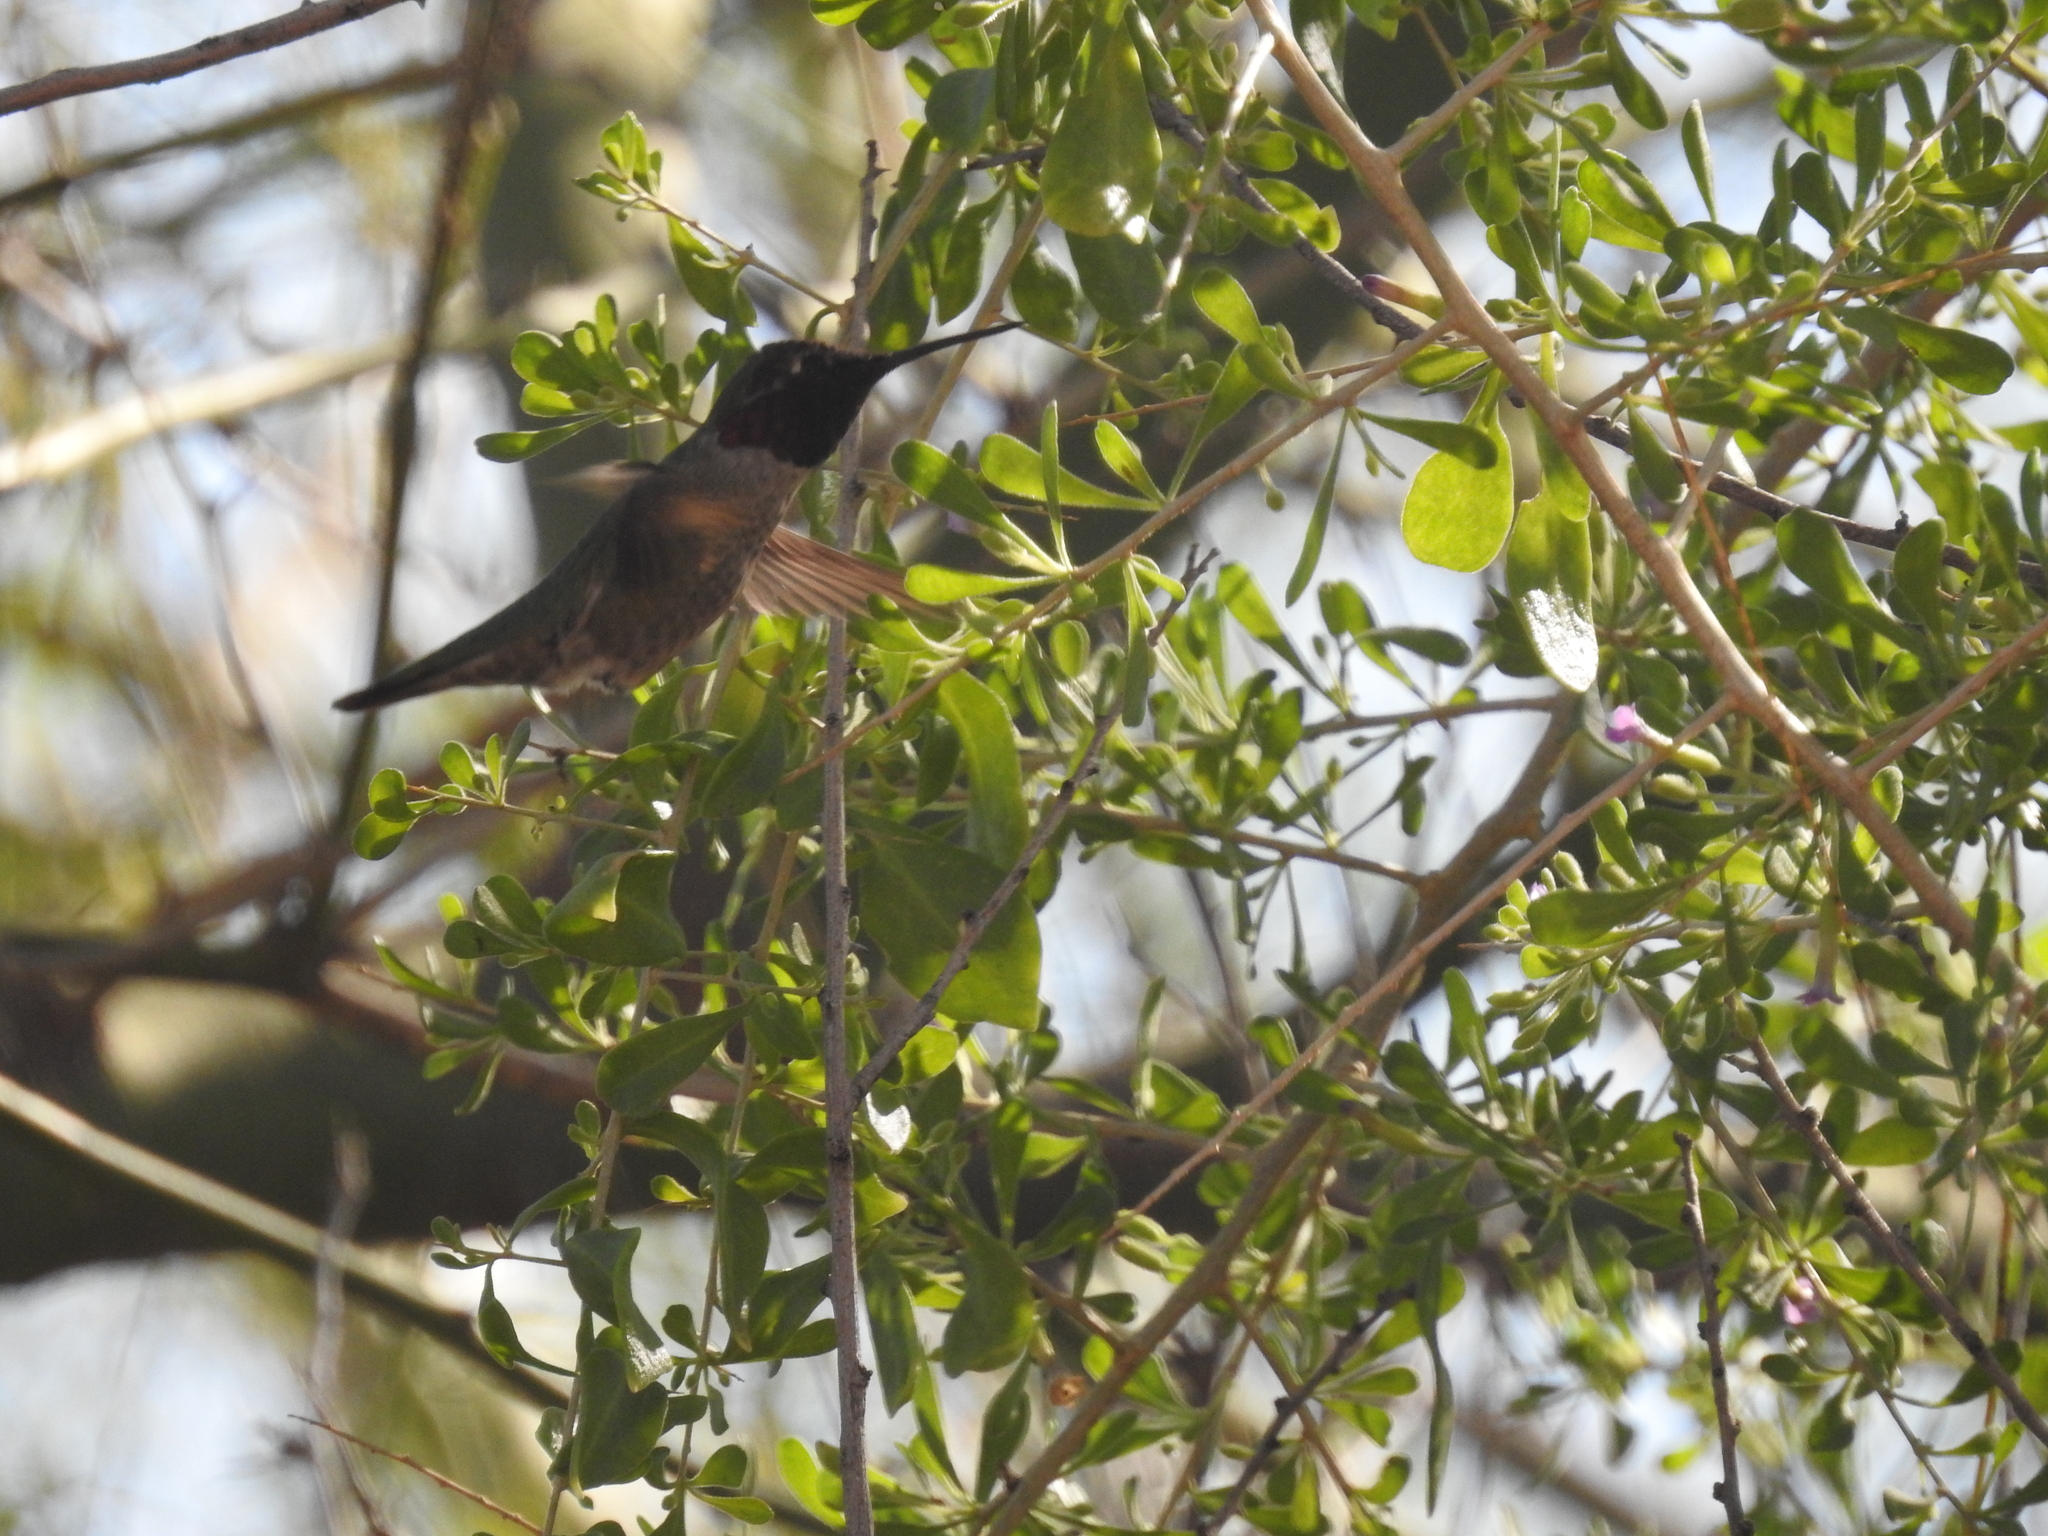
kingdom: Animalia
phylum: Chordata
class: Aves
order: Apodiformes
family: Trochilidae
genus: Calypte
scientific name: Calypte anna
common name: Anna's hummingbird
